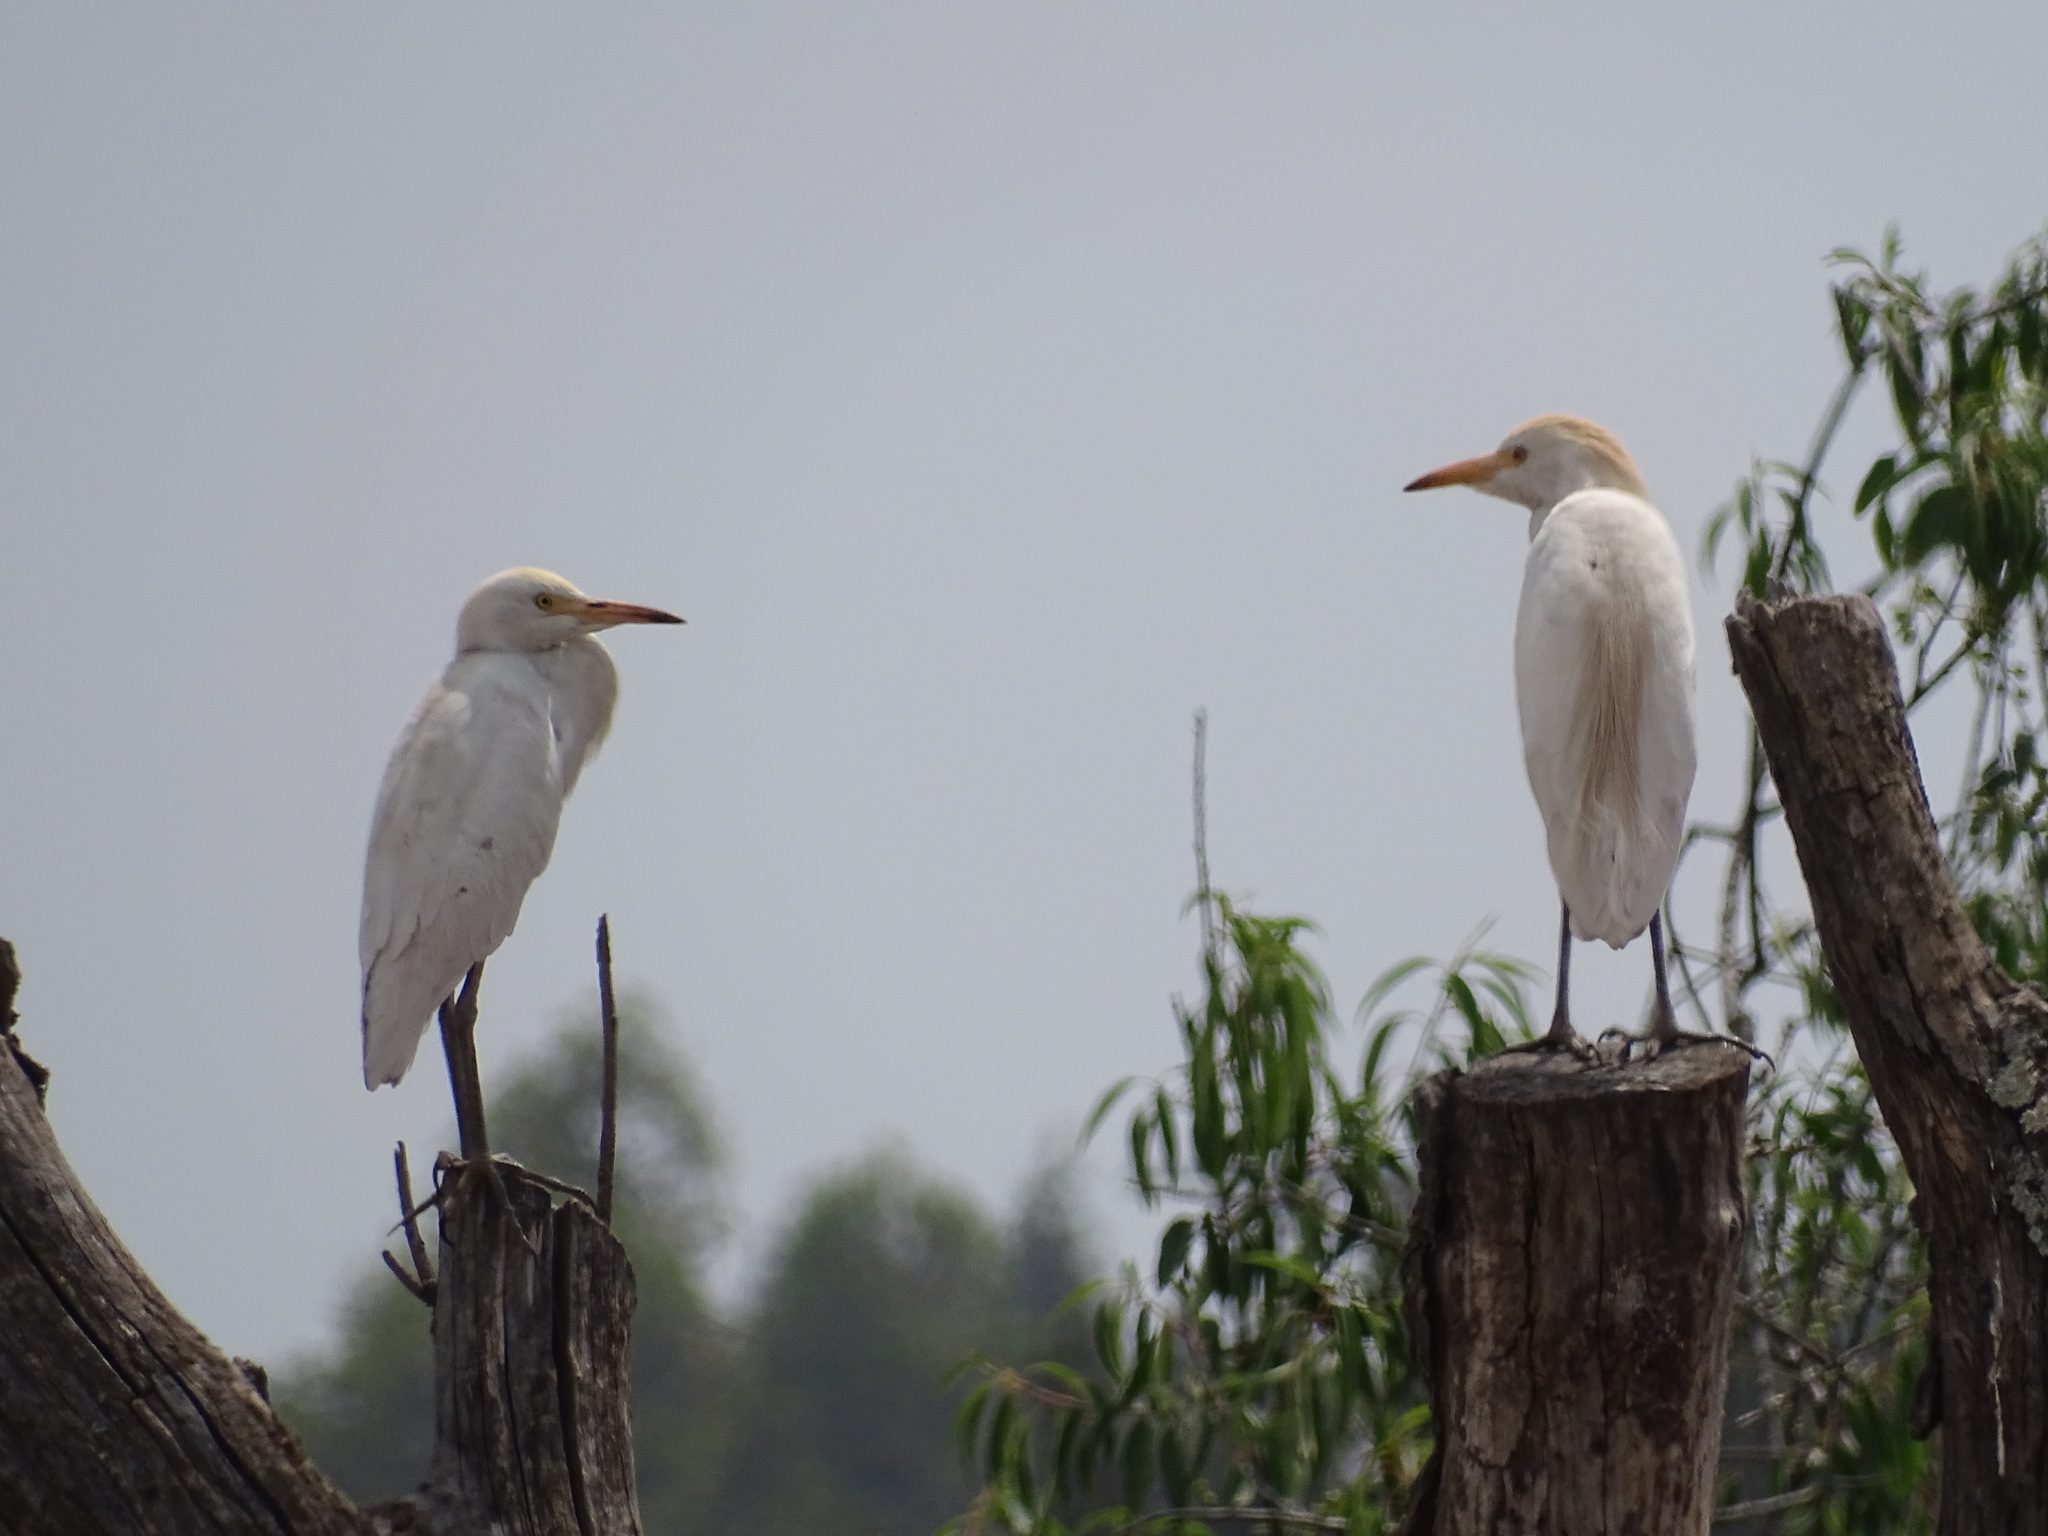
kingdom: Animalia
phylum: Chordata
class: Aves
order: Pelecaniformes
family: Ardeidae
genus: Bubulcus
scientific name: Bubulcus ibis
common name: Cattle egret
